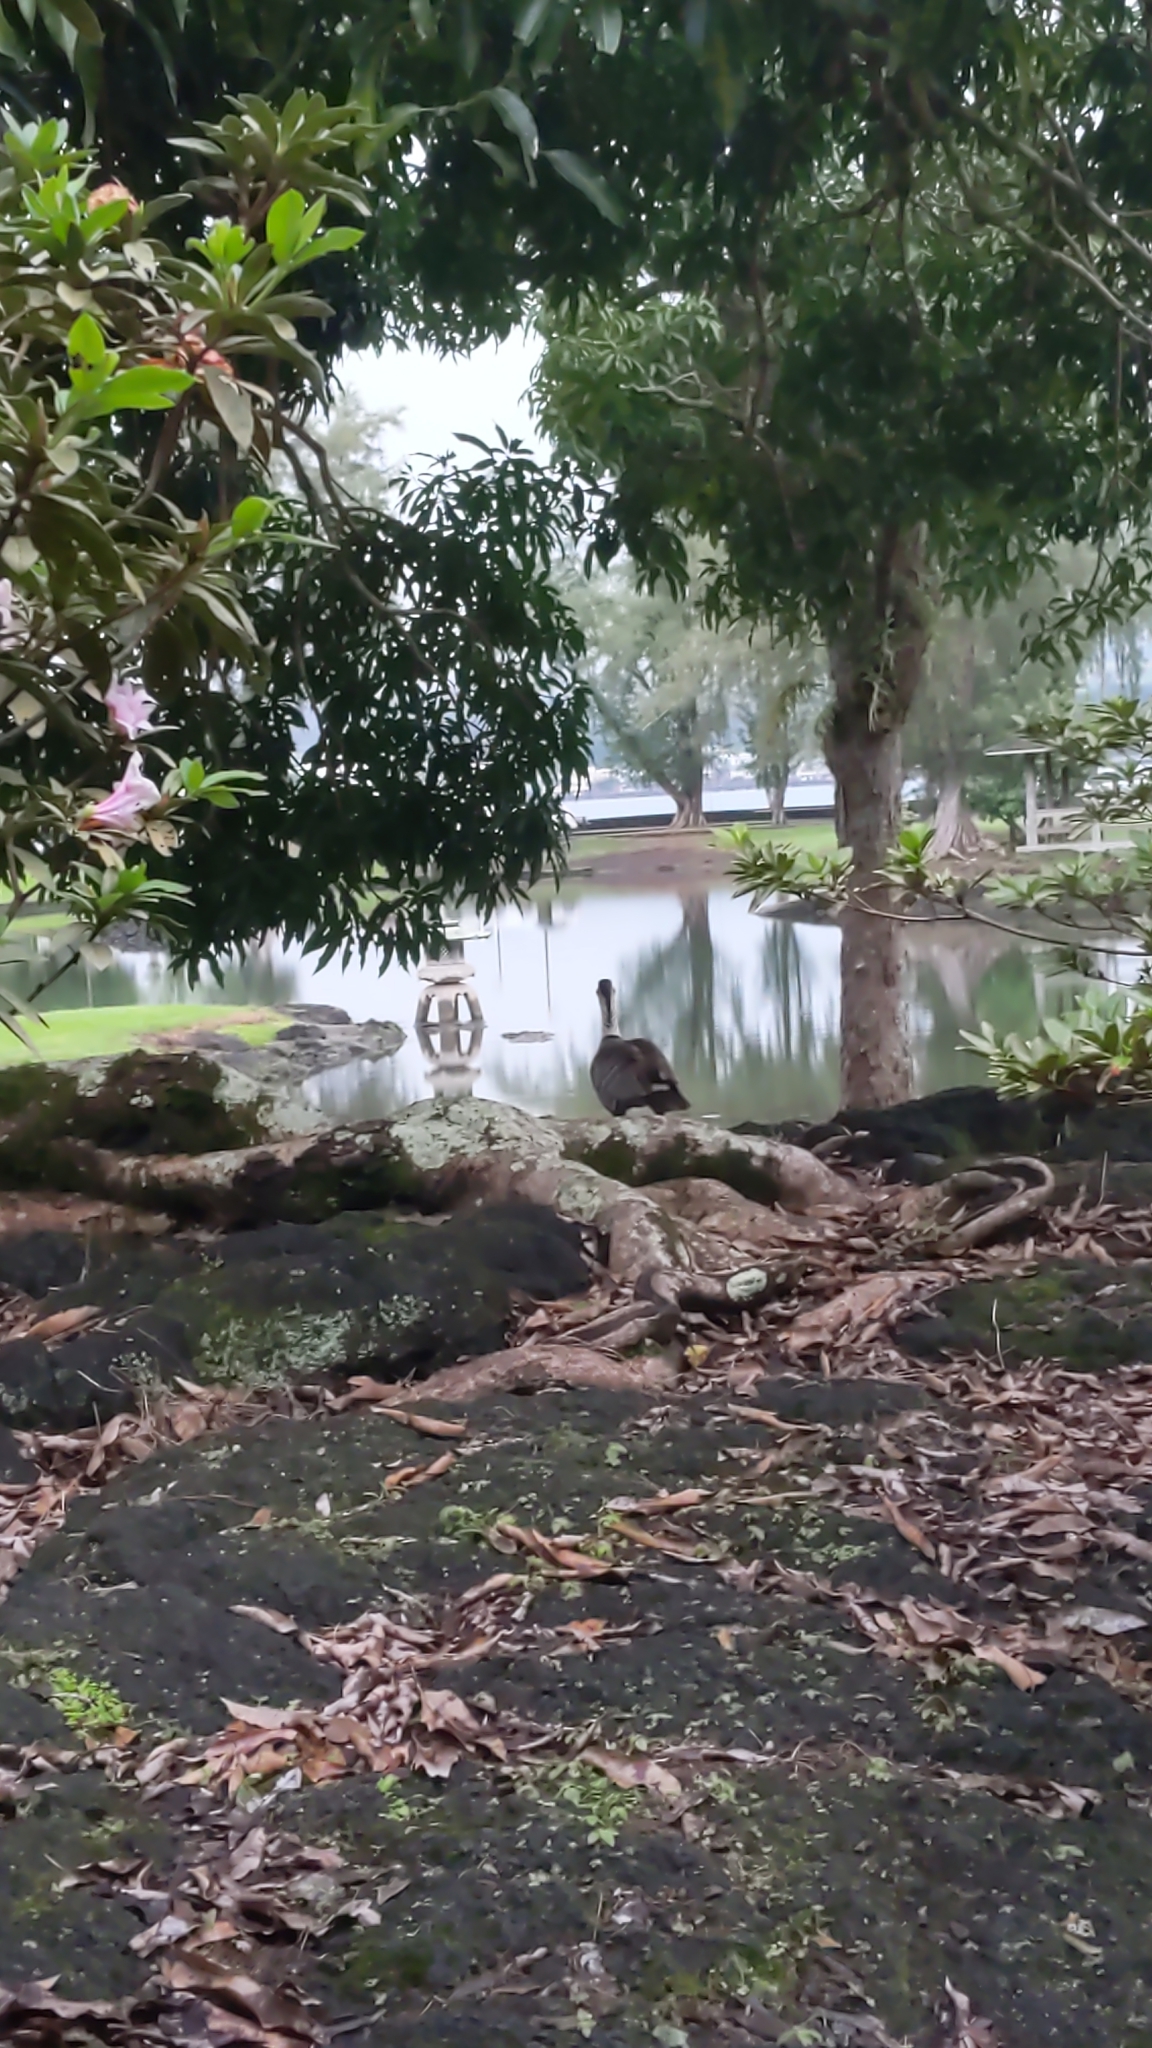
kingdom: Animalia
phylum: Chordata
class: Aves
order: Anseriformes
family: Anatidae
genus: Branta
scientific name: Branta sandvicensis
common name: Nene
